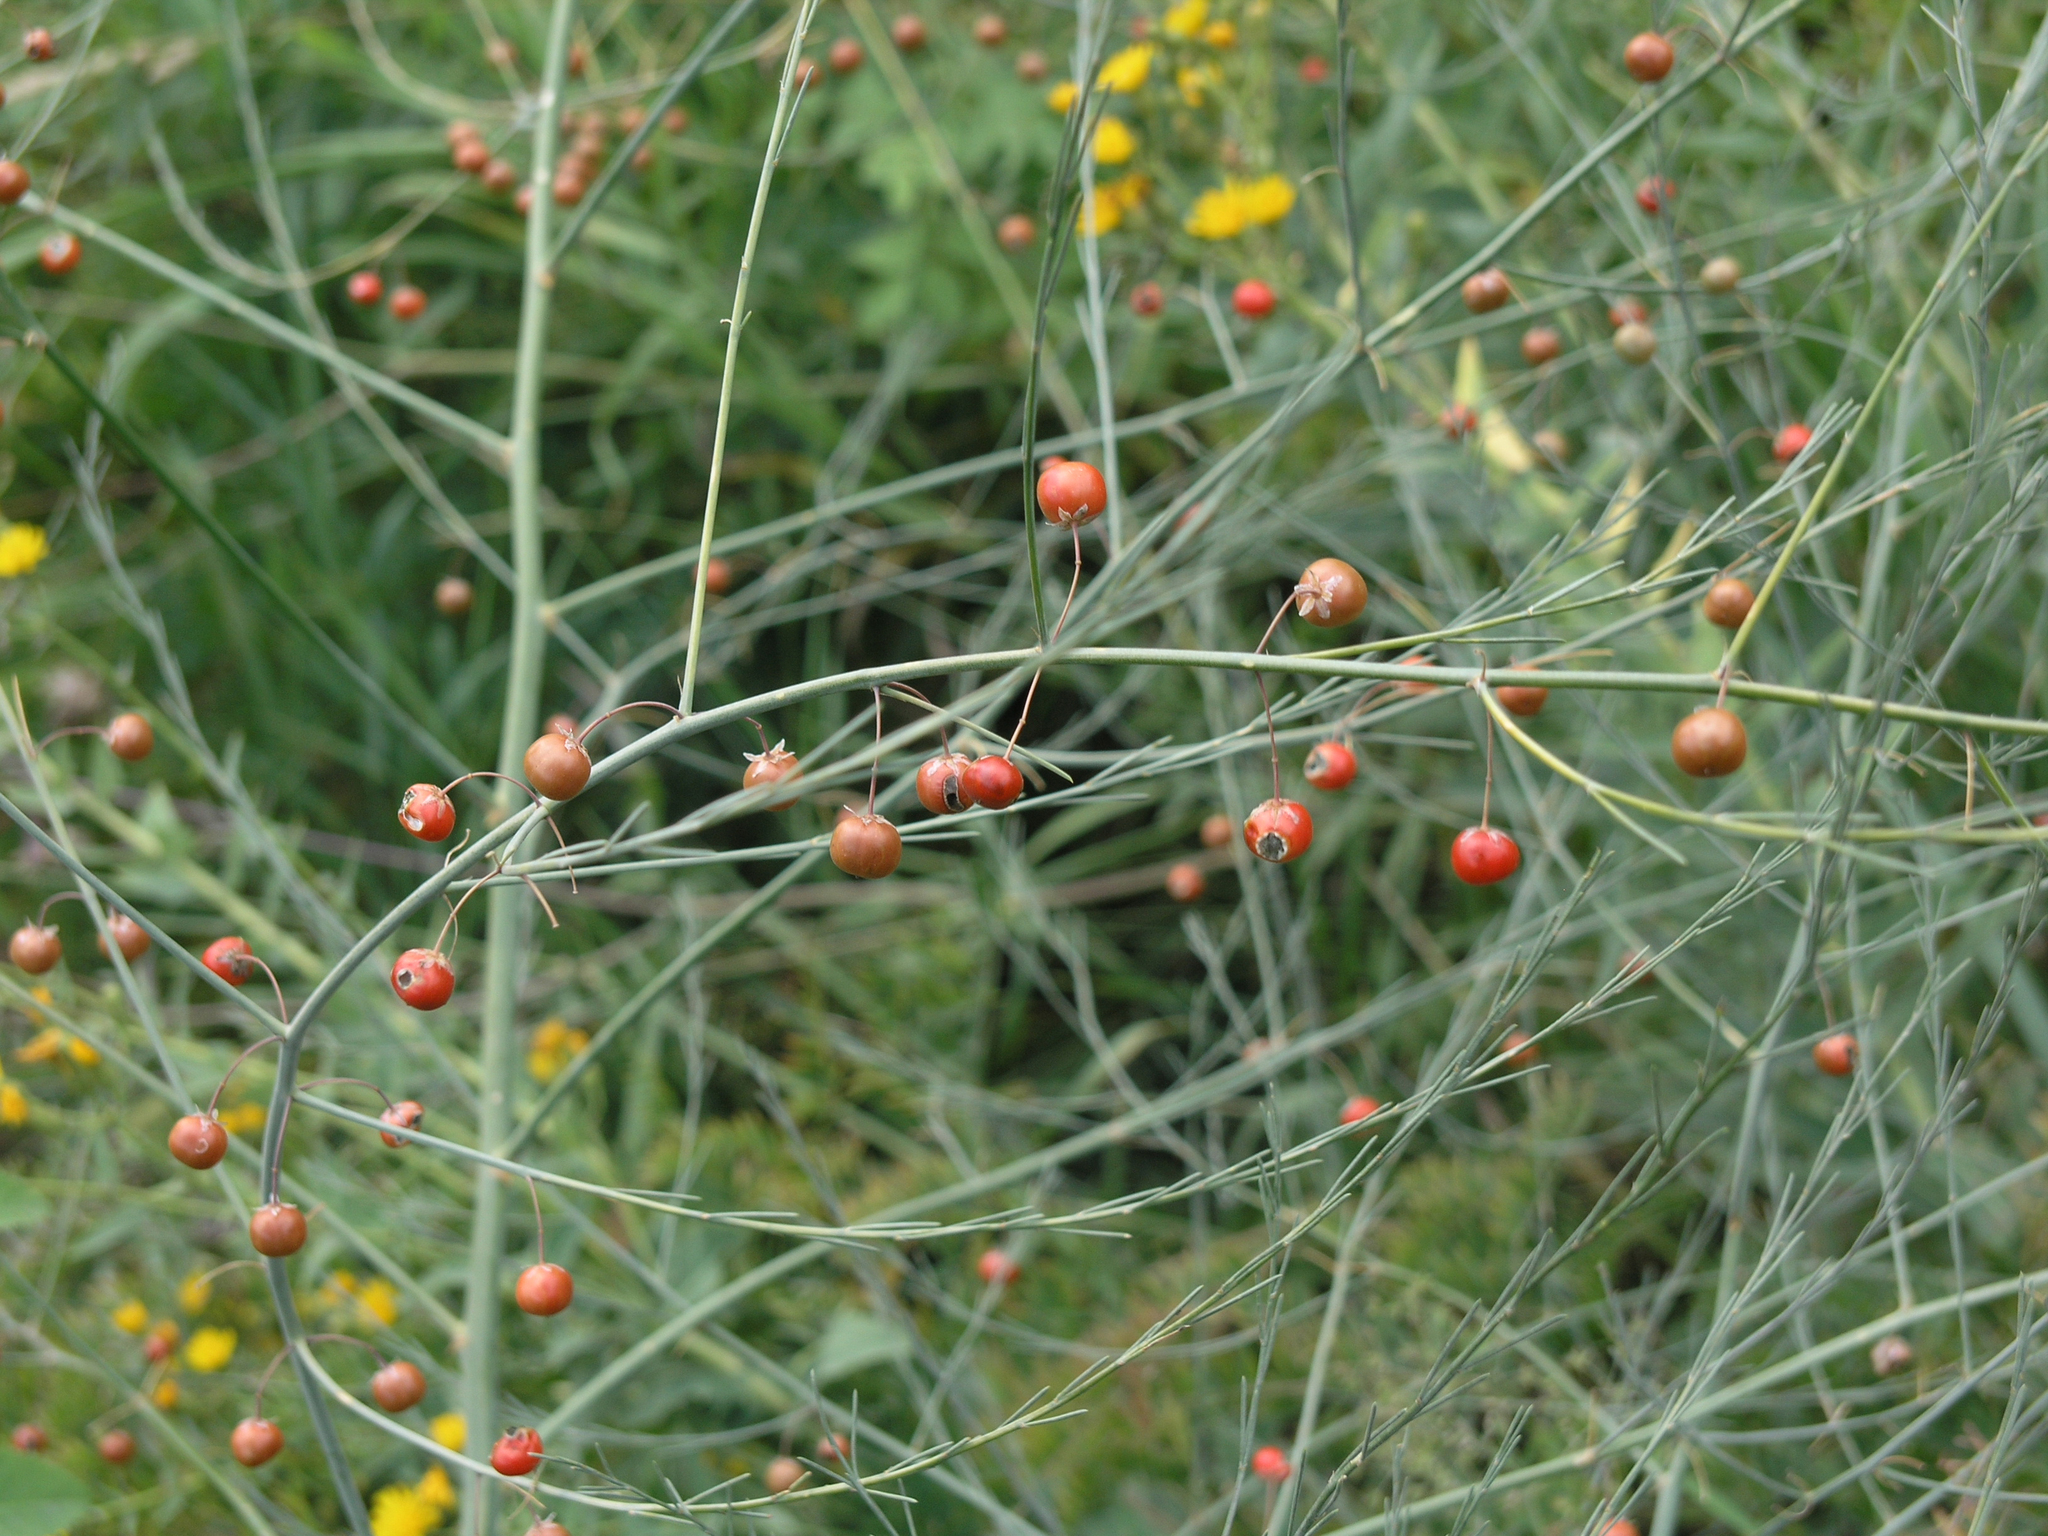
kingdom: Plantae
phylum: Tracheophyta
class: Liliopsida
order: Asparagales
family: Asparagaceae
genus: Asparagus
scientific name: Asparagus officinalis
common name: Garden asparagus
